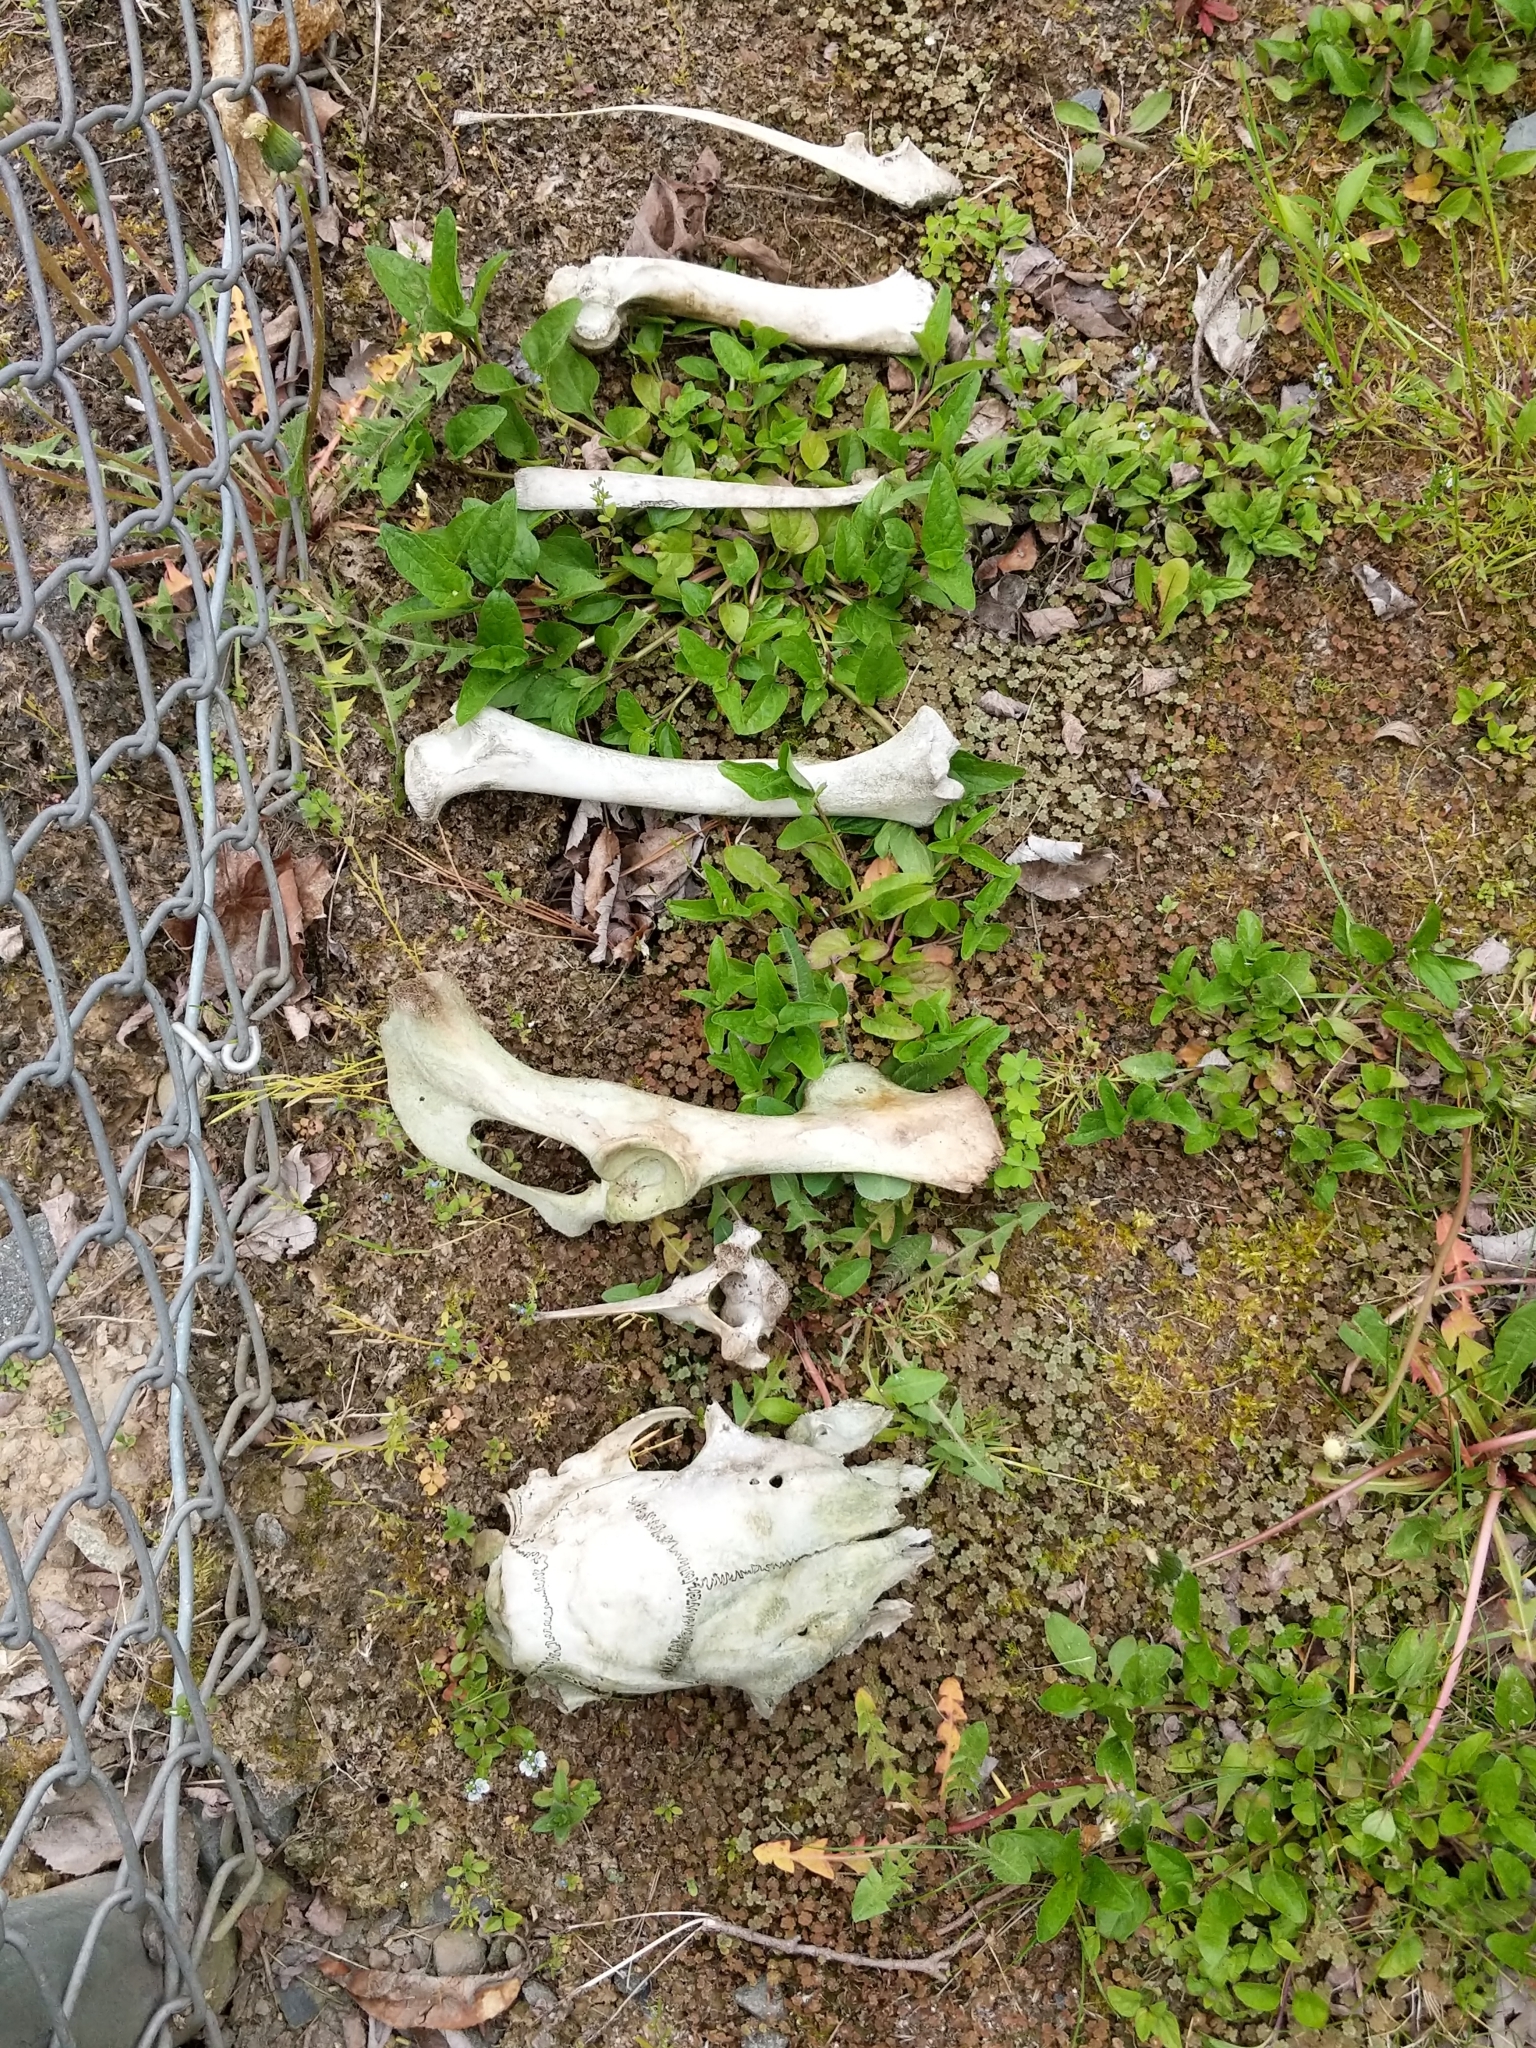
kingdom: Animalia
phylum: Chordata
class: Mammalia
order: Artiodactyla
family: Cervidae
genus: Odocoileus
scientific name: Odocoileus virginianus
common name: White-tailed deer
